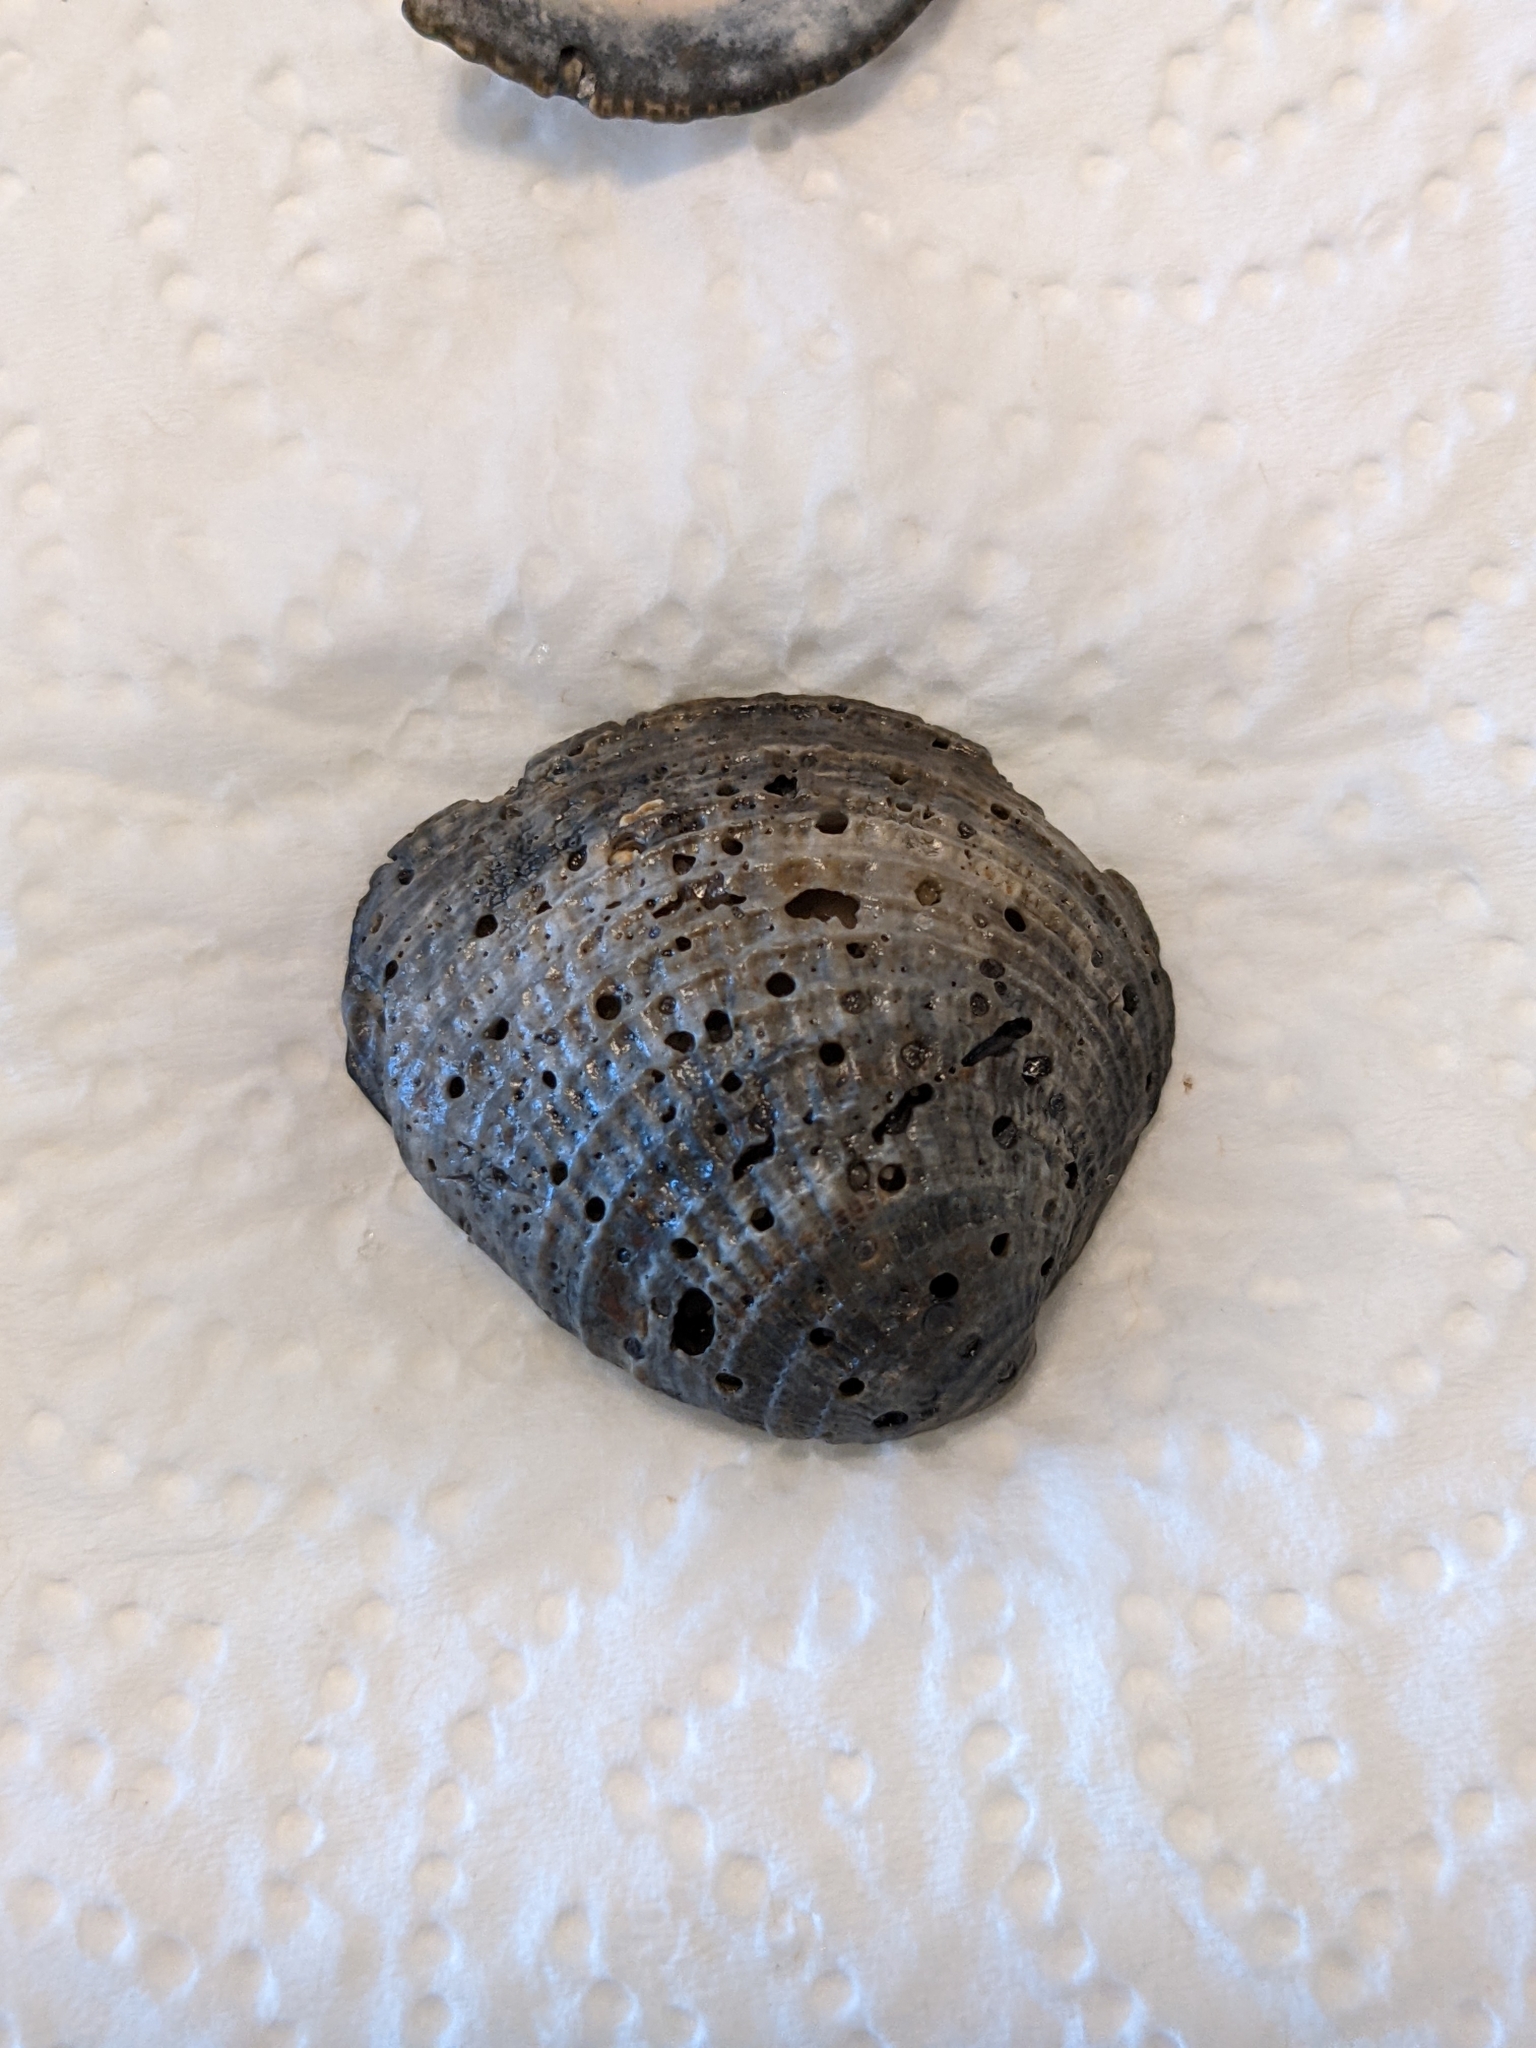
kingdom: Animalia
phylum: Mollusca
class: Bivalvia
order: Venerida
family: Veneridae
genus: Chione
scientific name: Chione elevata
